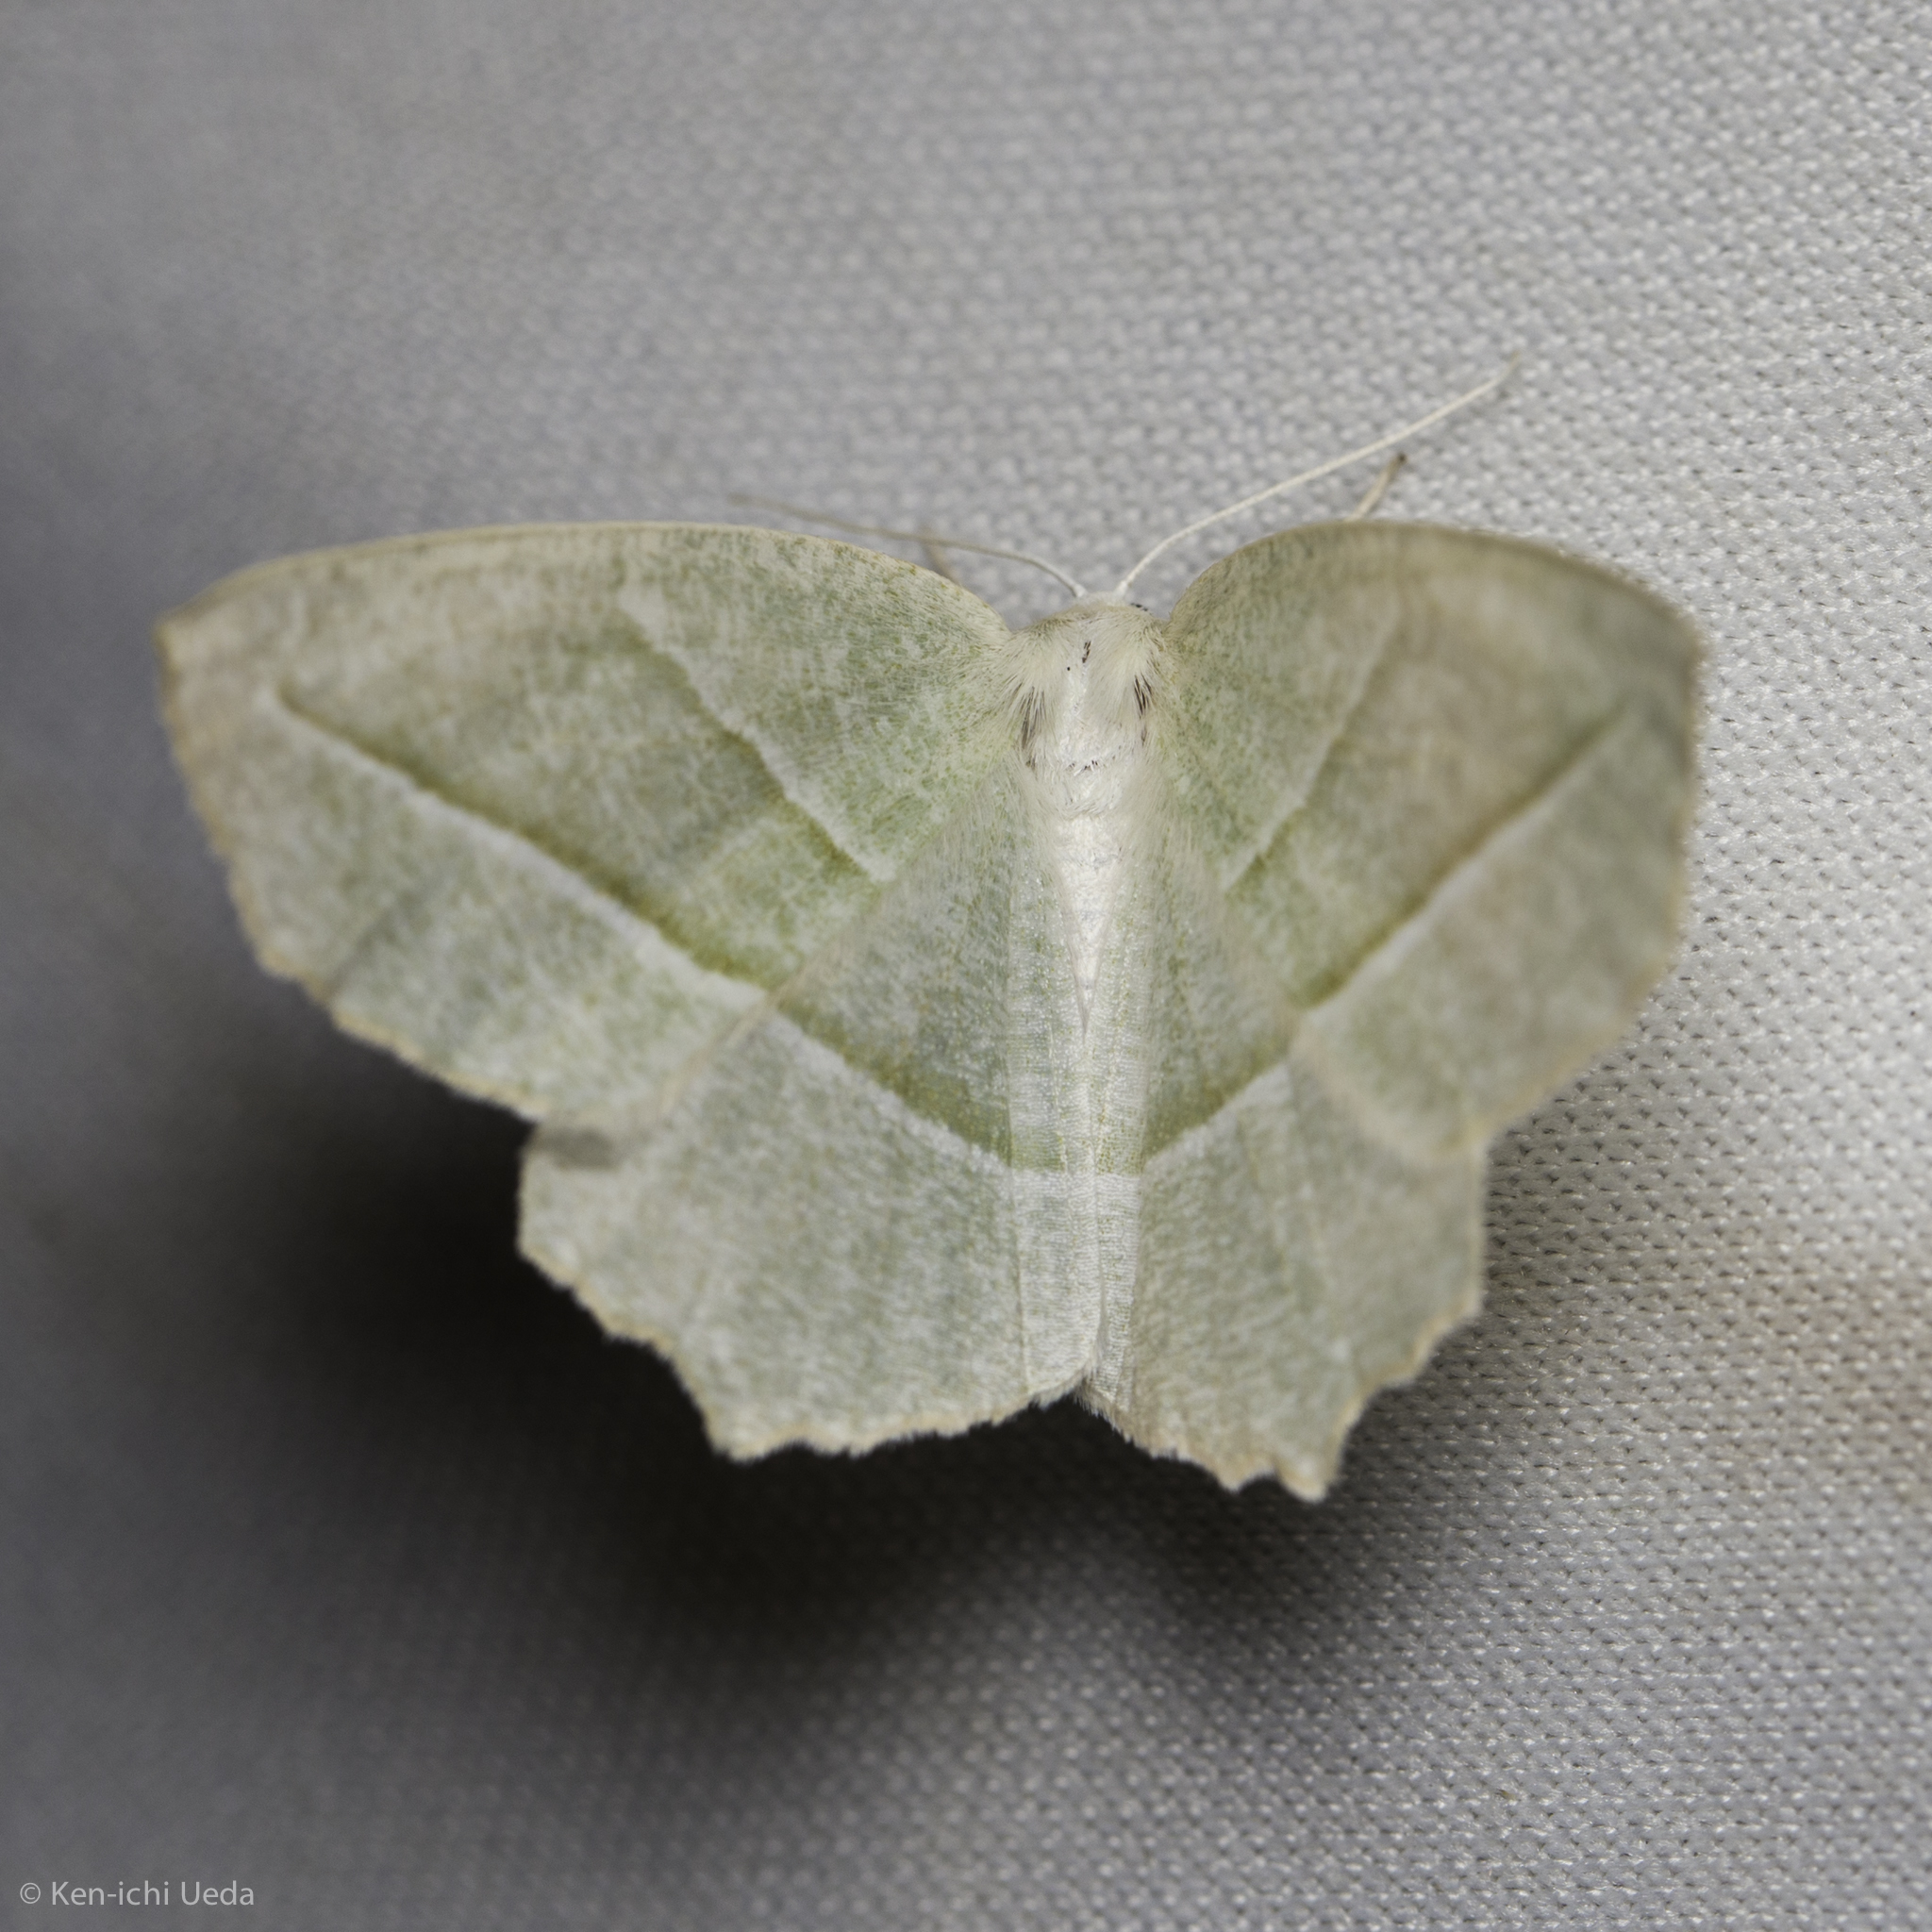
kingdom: Animalia
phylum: Arthropoda
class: Insecta
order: Lepidoptera
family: Geometridae
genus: Campaea
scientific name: Campaea perlata
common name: Fringed looper
